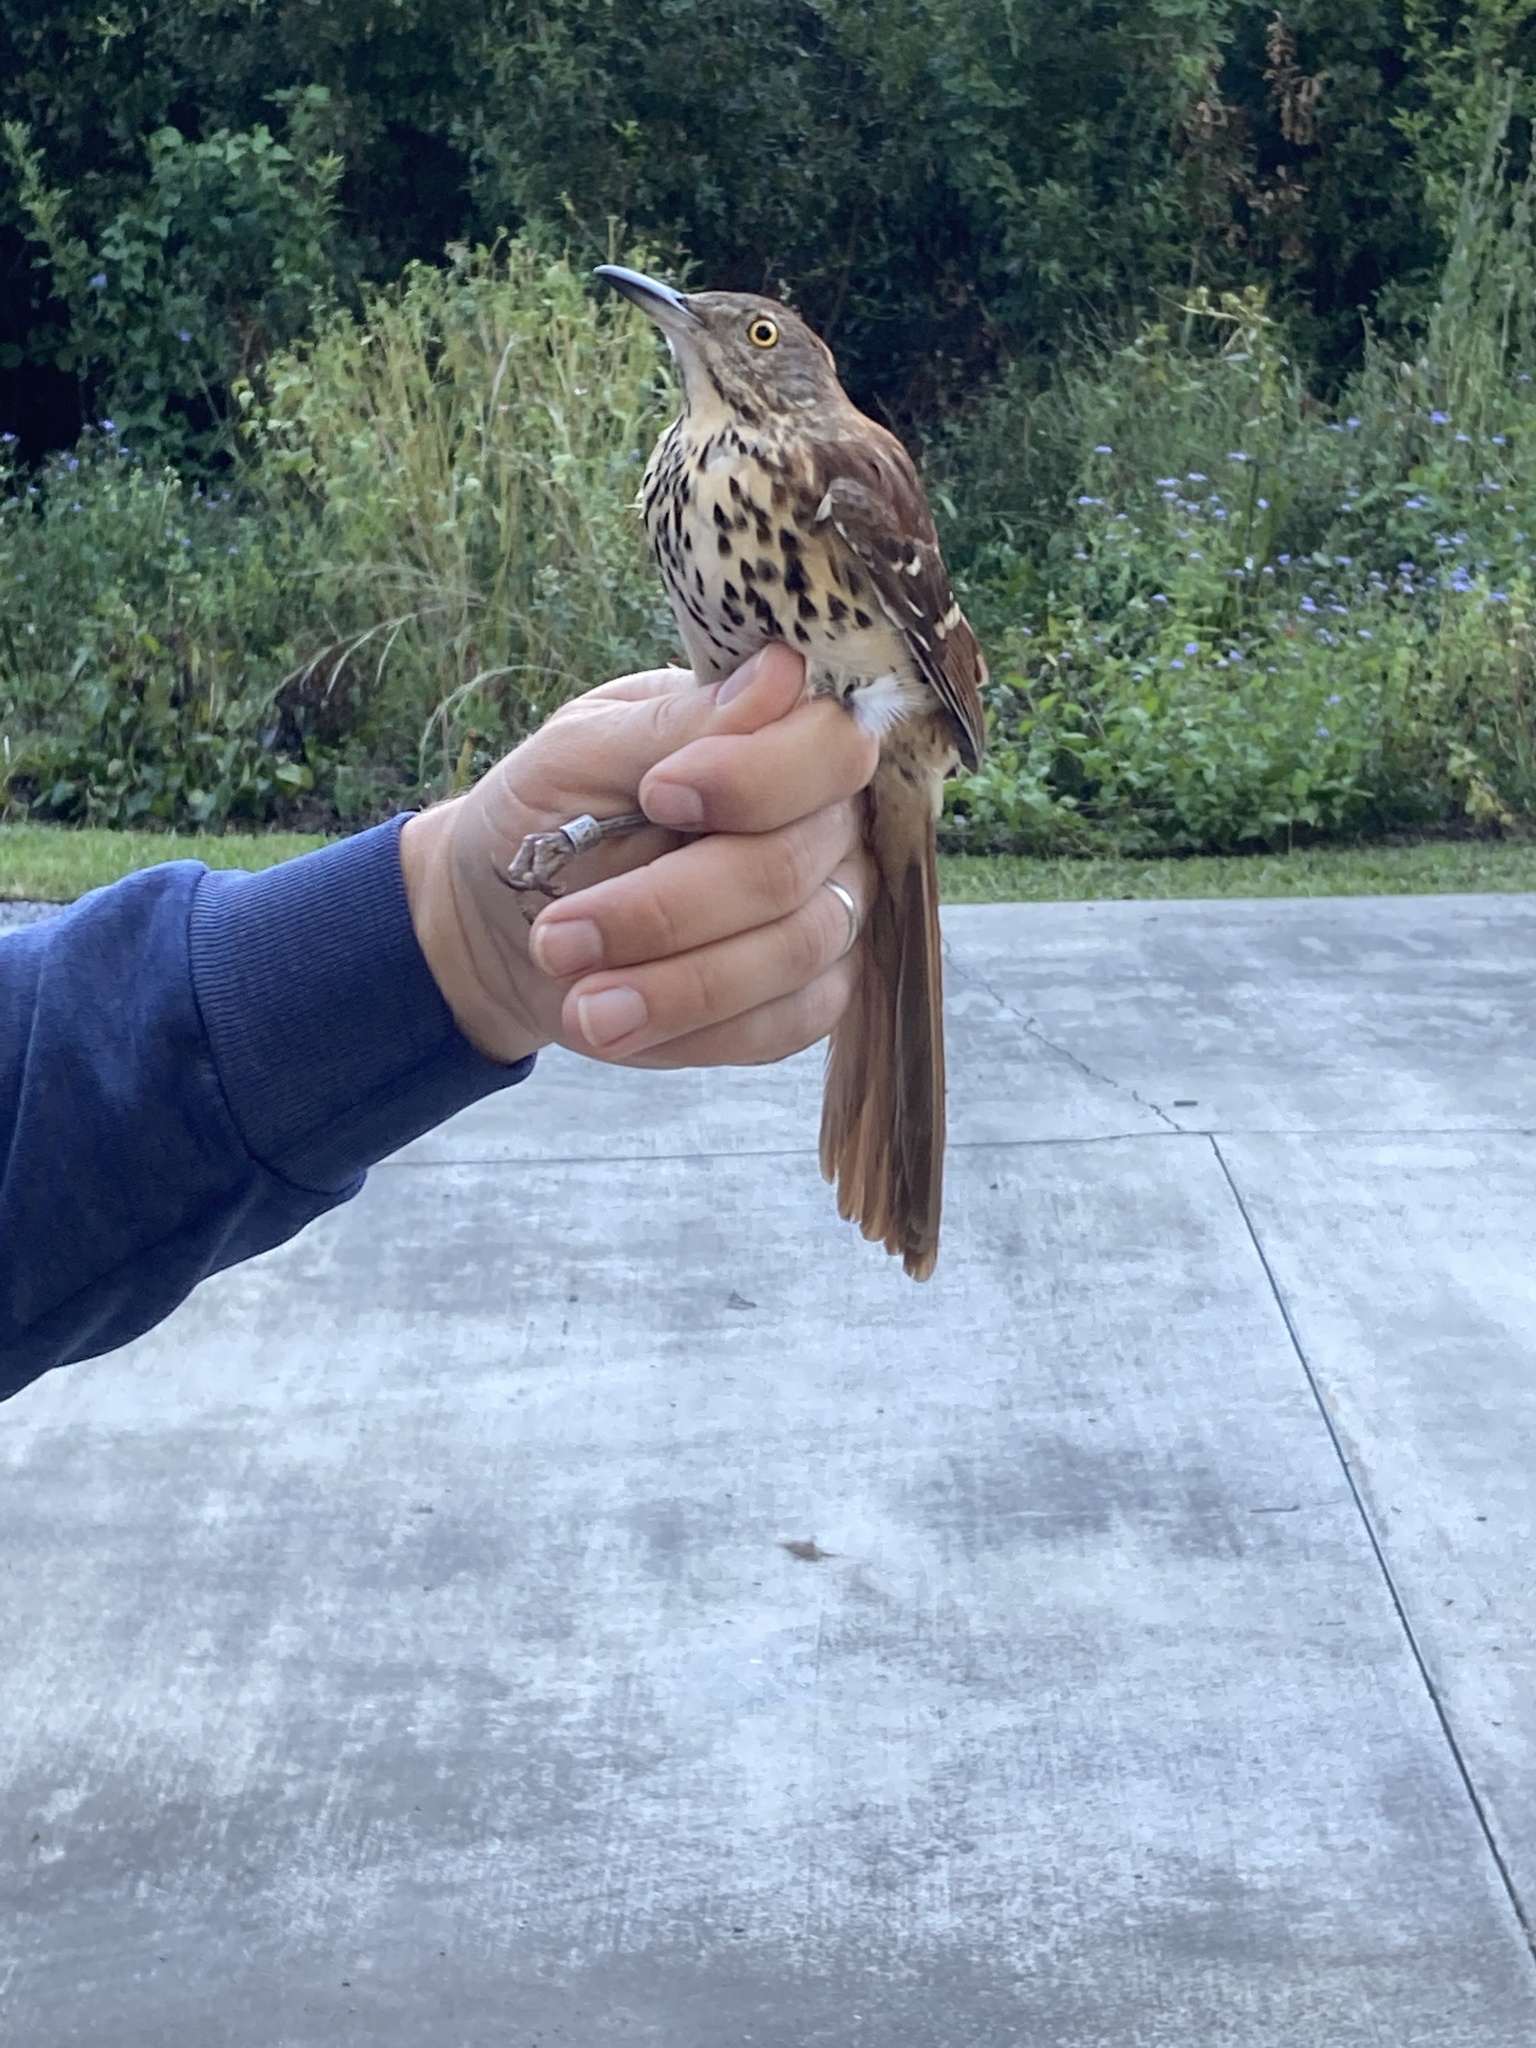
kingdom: Animalia
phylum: Chordata
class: Aves
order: Passeriformes
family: Mimidae
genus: Toxostoma
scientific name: Toxostoma rufum
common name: Brown thrasher
